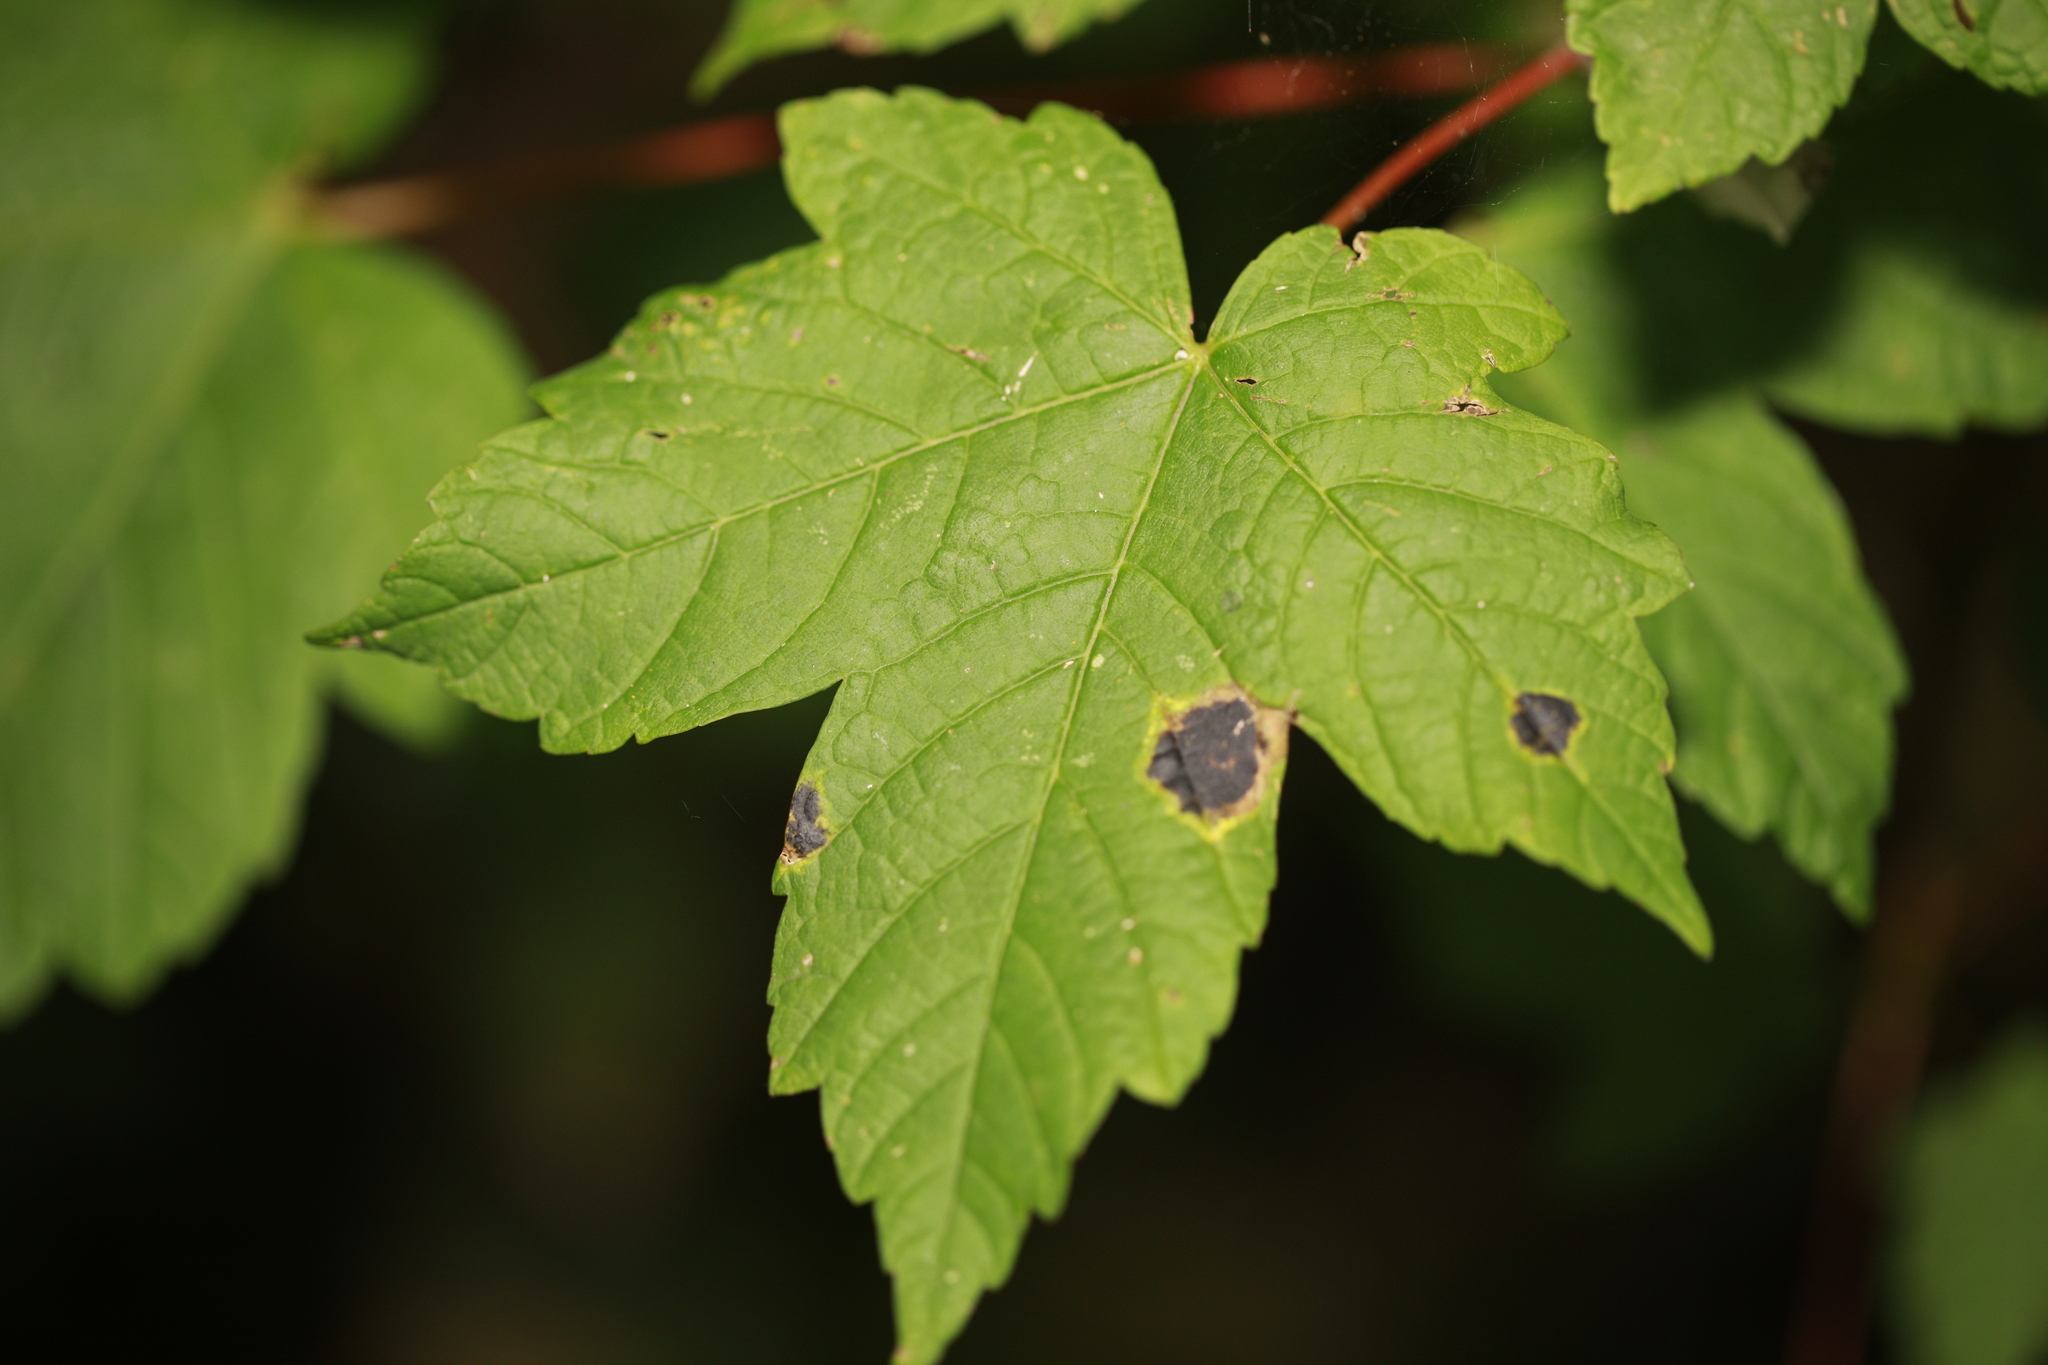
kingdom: Plantae
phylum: Tracheophyta
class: Magnoliopsida
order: Sapindales
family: Sapindaceae
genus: Acer
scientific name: Acer pseudoplatanus
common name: Sycamore
